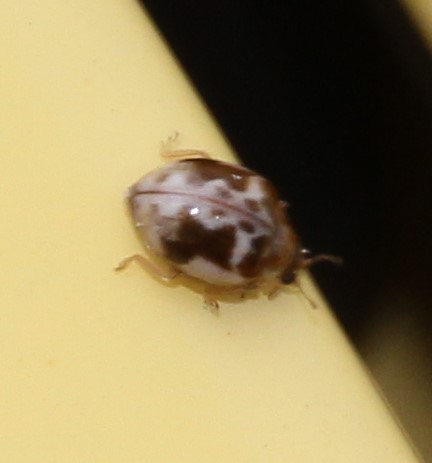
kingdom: Animalia
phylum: Arthropoda
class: Insecta
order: Coleoptera
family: Coccinellidae
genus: Psyllobora
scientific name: Psyllobora renifer
